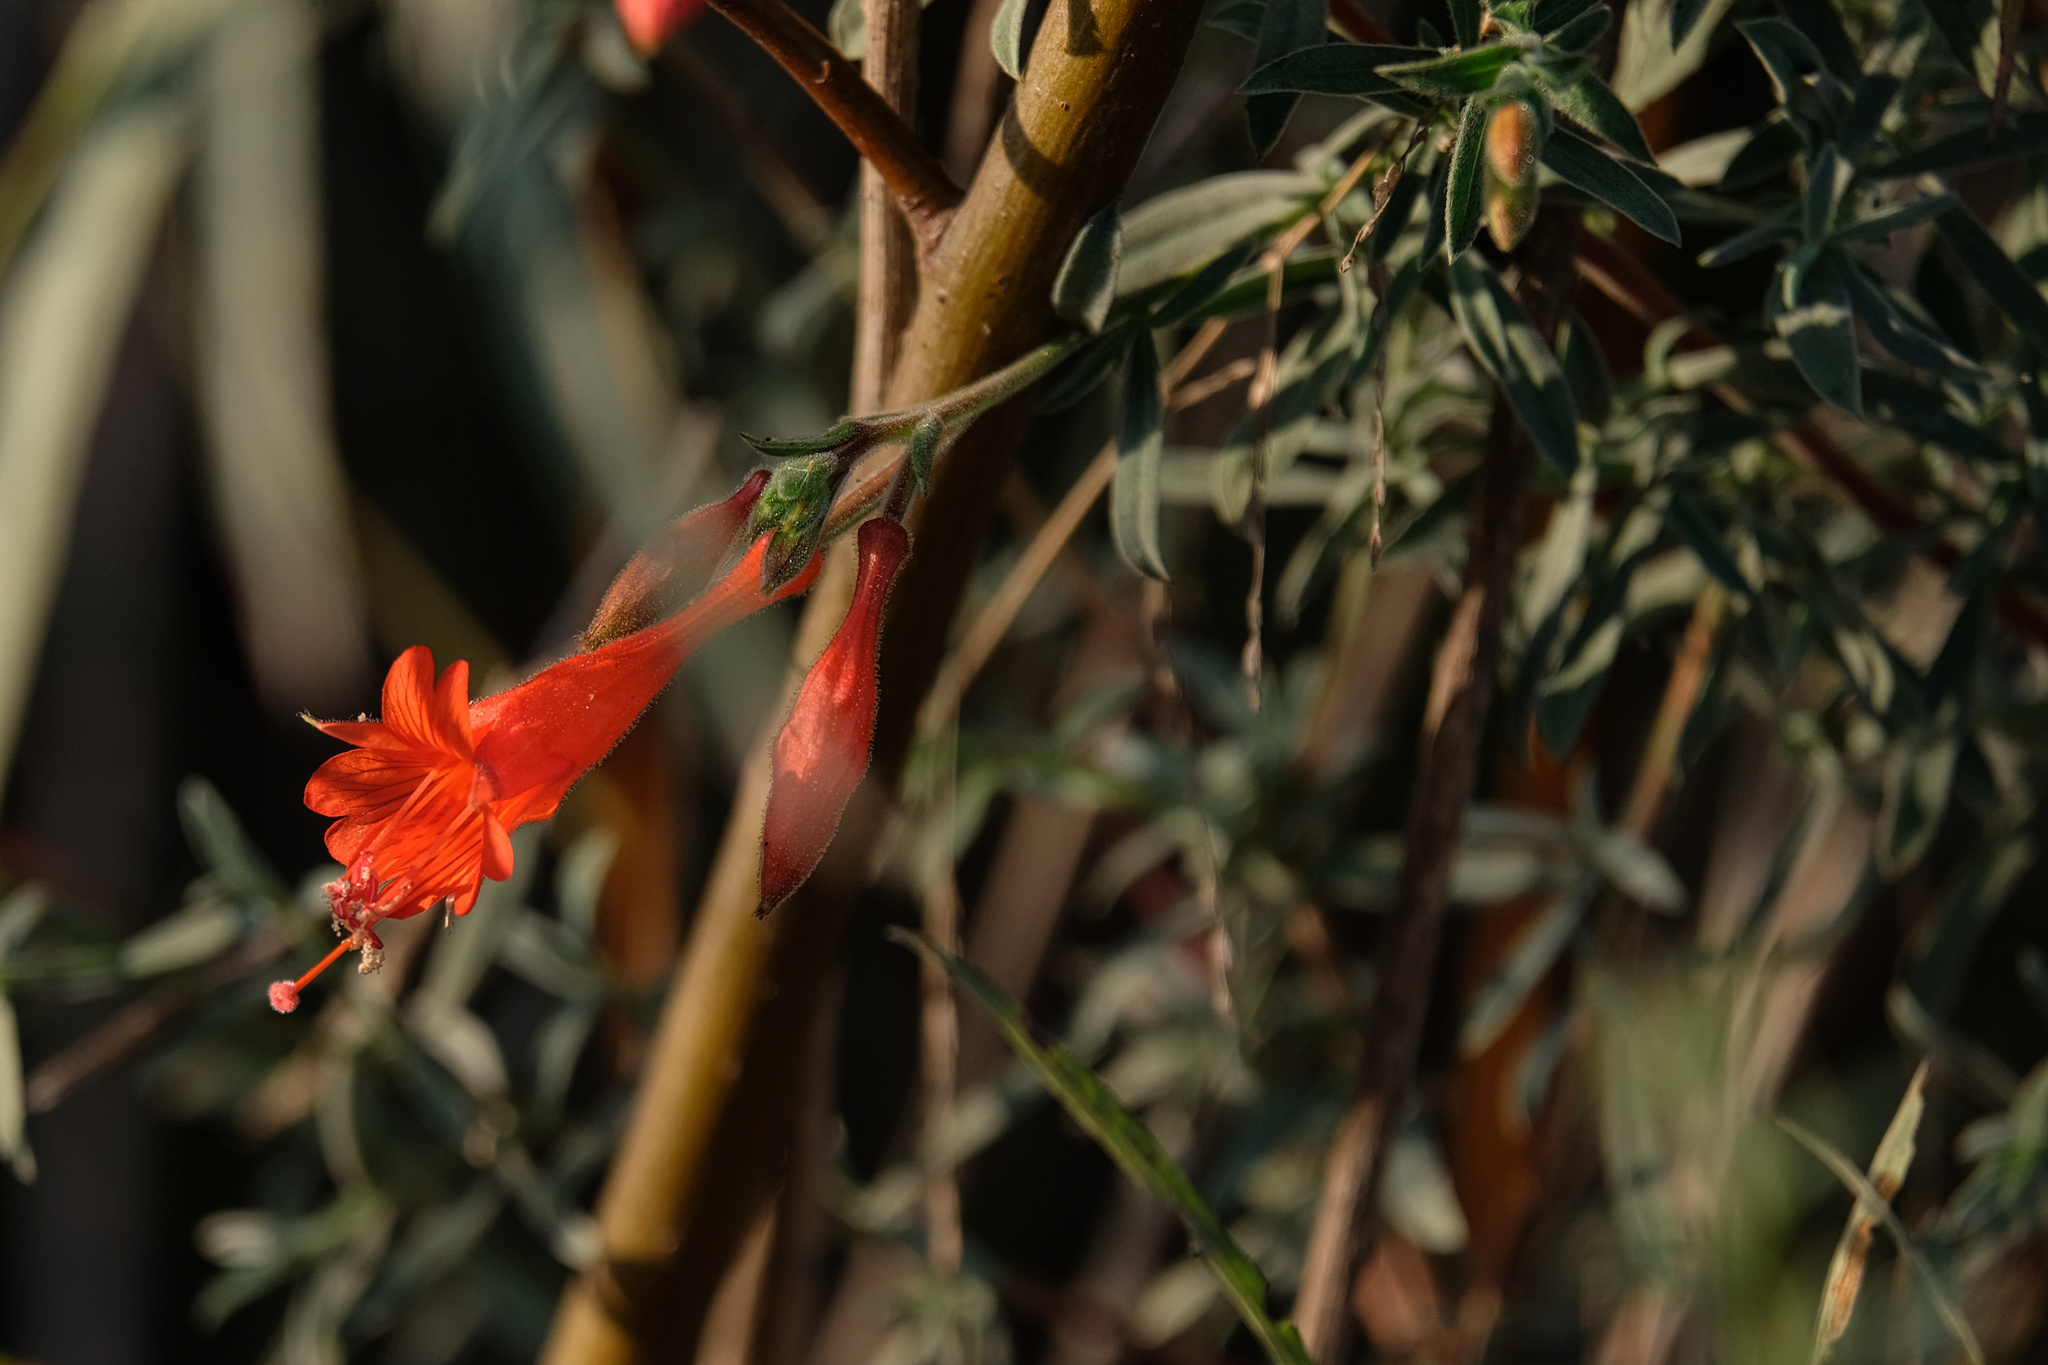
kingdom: Plantae
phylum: Tracheophyta
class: Magnoliopsida
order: Myrtales
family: Onagraceae
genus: Epilobium
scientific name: Epilobium canum
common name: California-fuchsia
